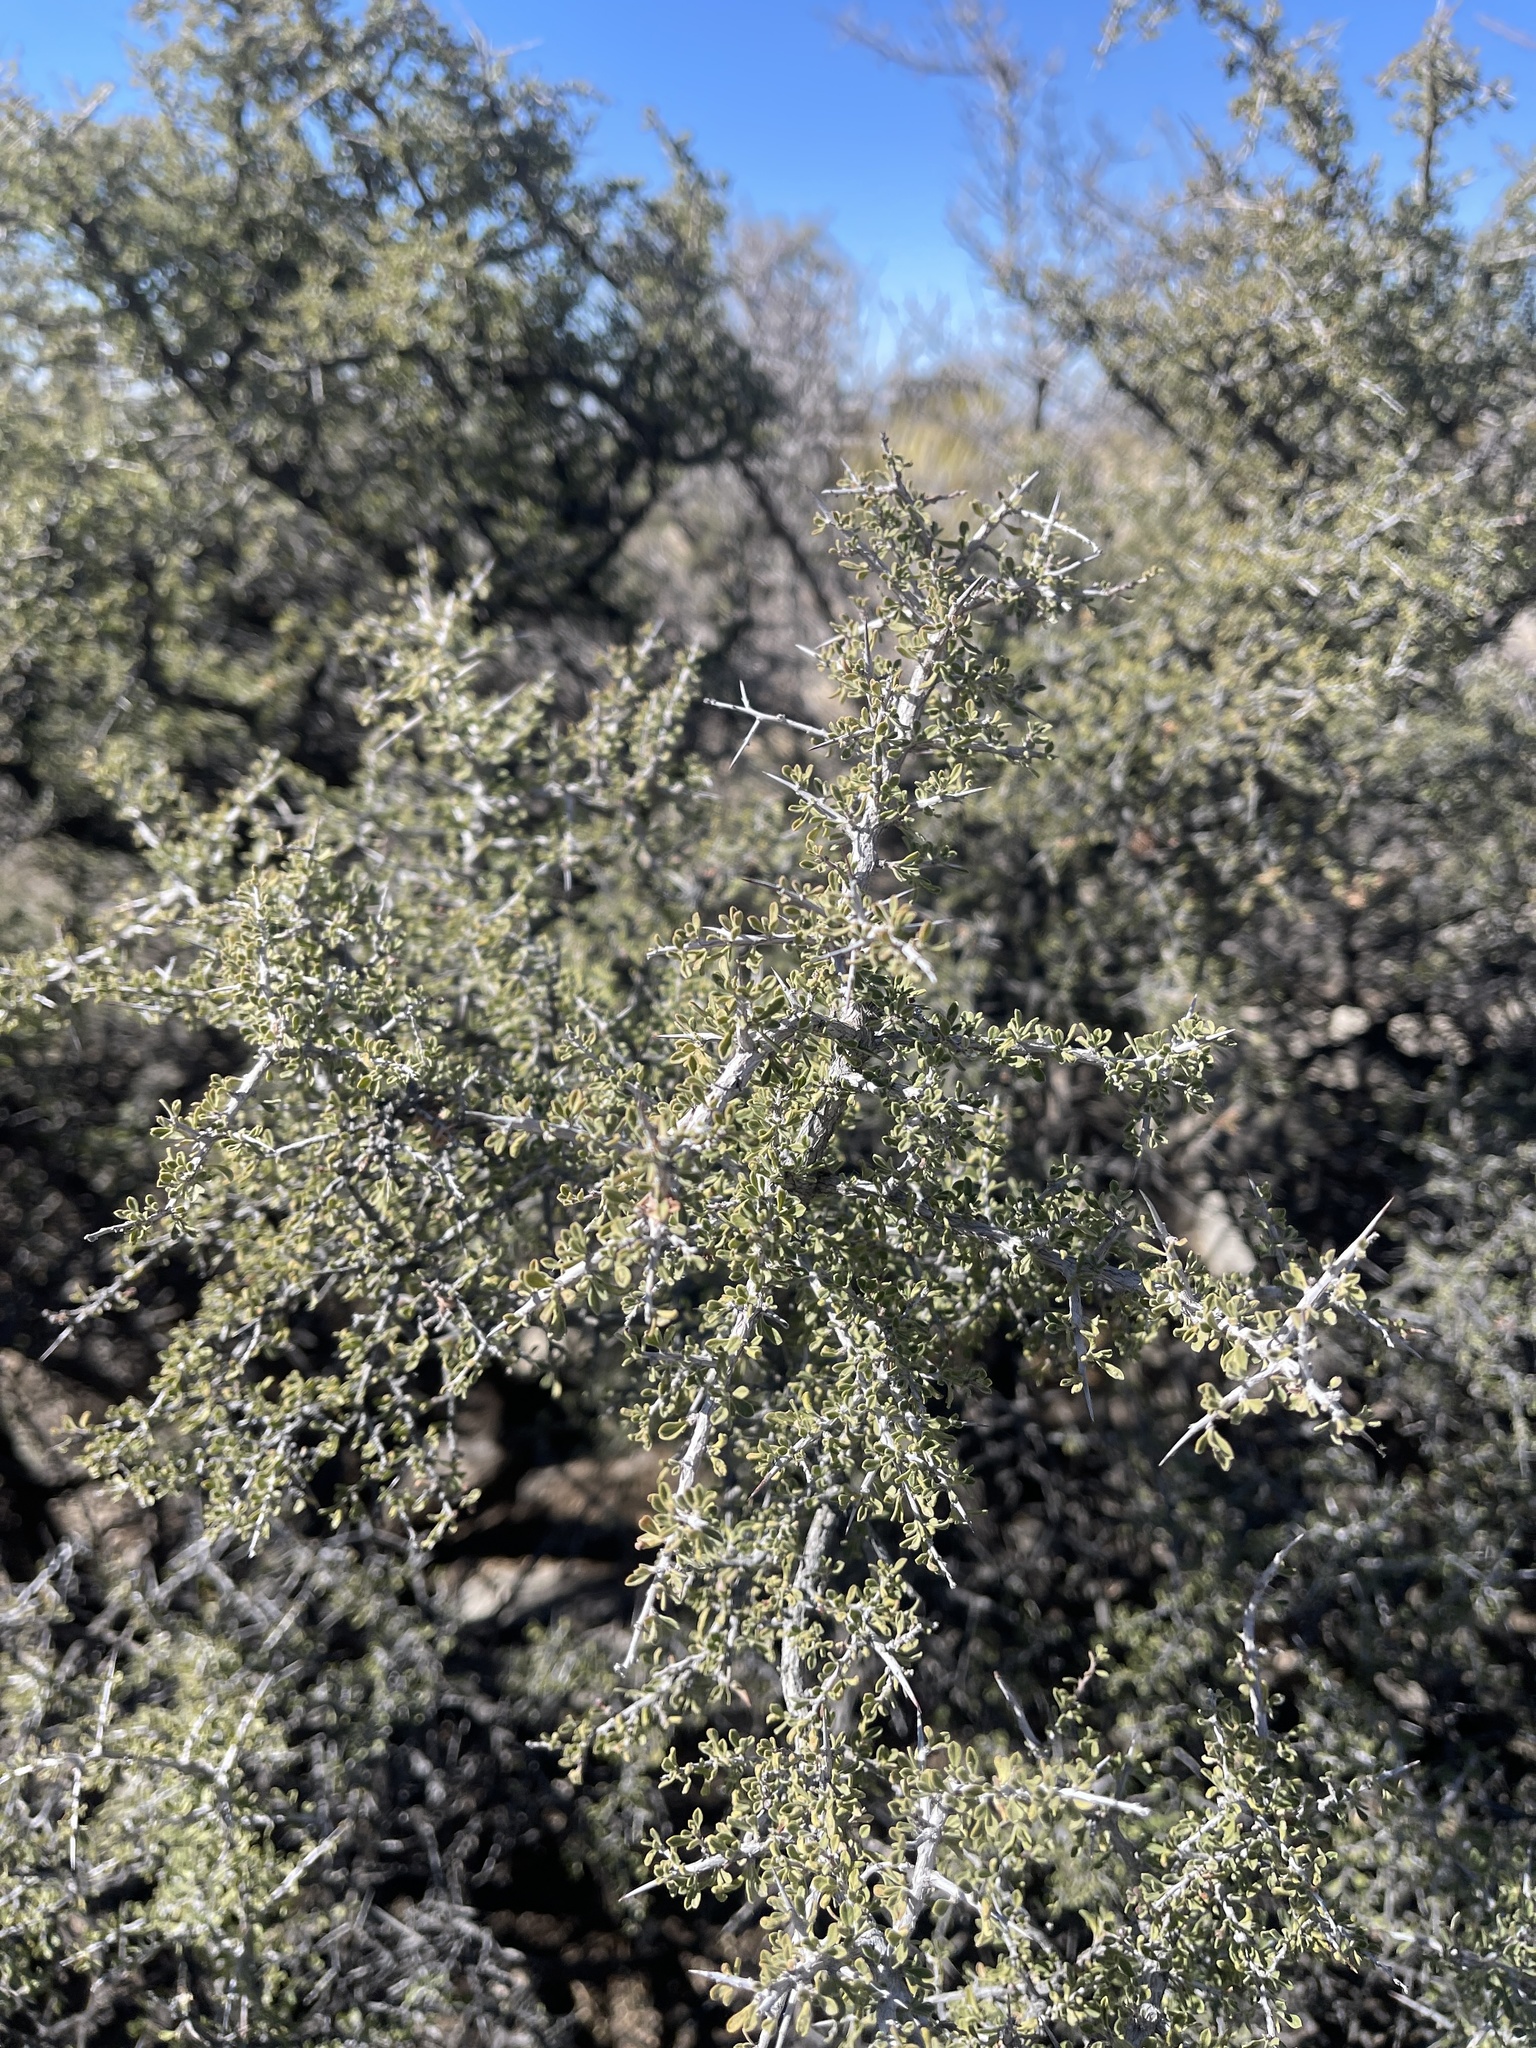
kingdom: Plantae
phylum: Tracheophyta
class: Magnoliopsida
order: Rosales
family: Rhamnaceae
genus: Condalia
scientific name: Condalia warnockii
